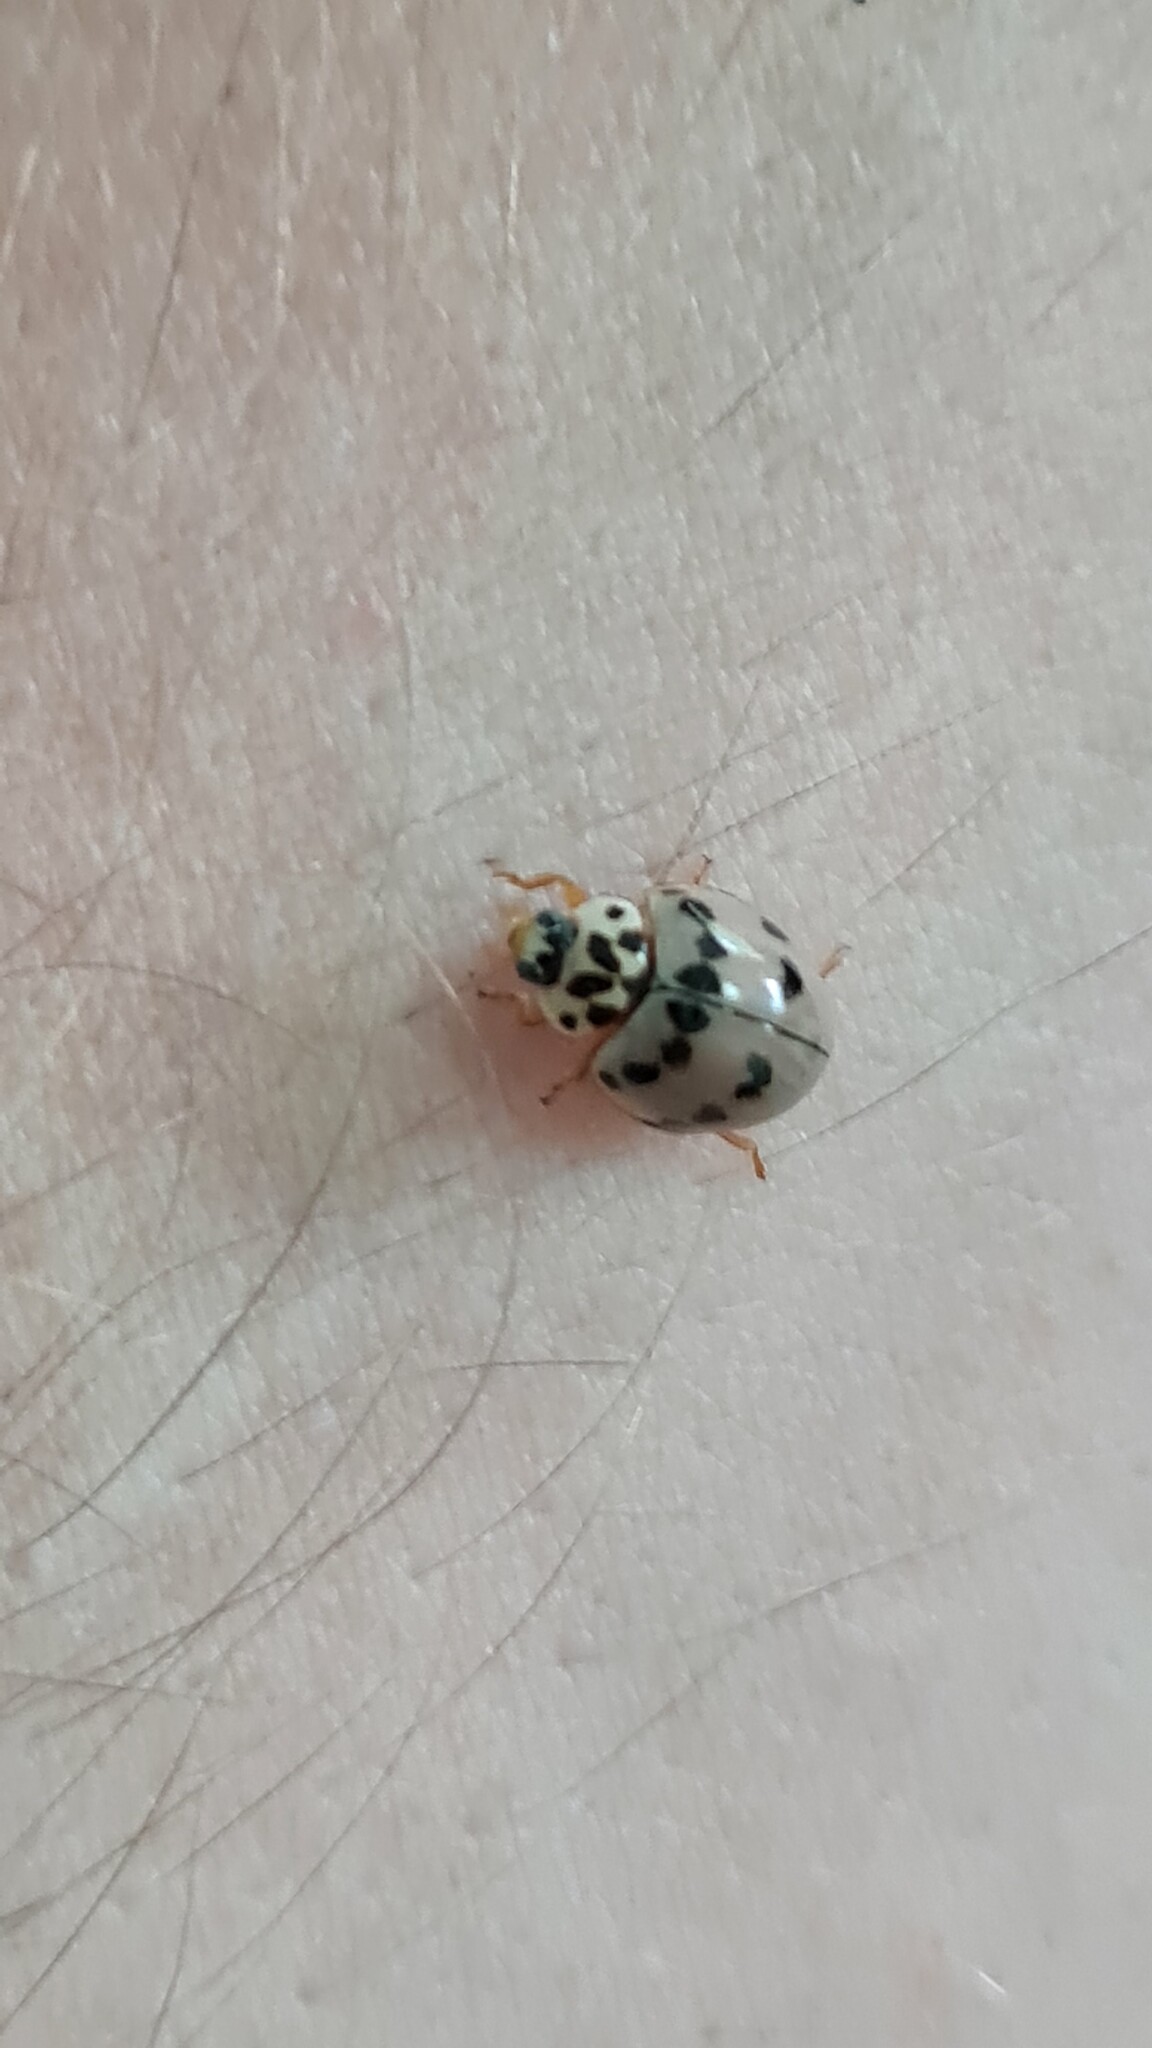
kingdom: Animalia
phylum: Arthropoda
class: Insecta
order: Coleoptera
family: Coccinellidae
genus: Olla
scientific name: Olla v-nigrum
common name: Ashy gray lady beetle
